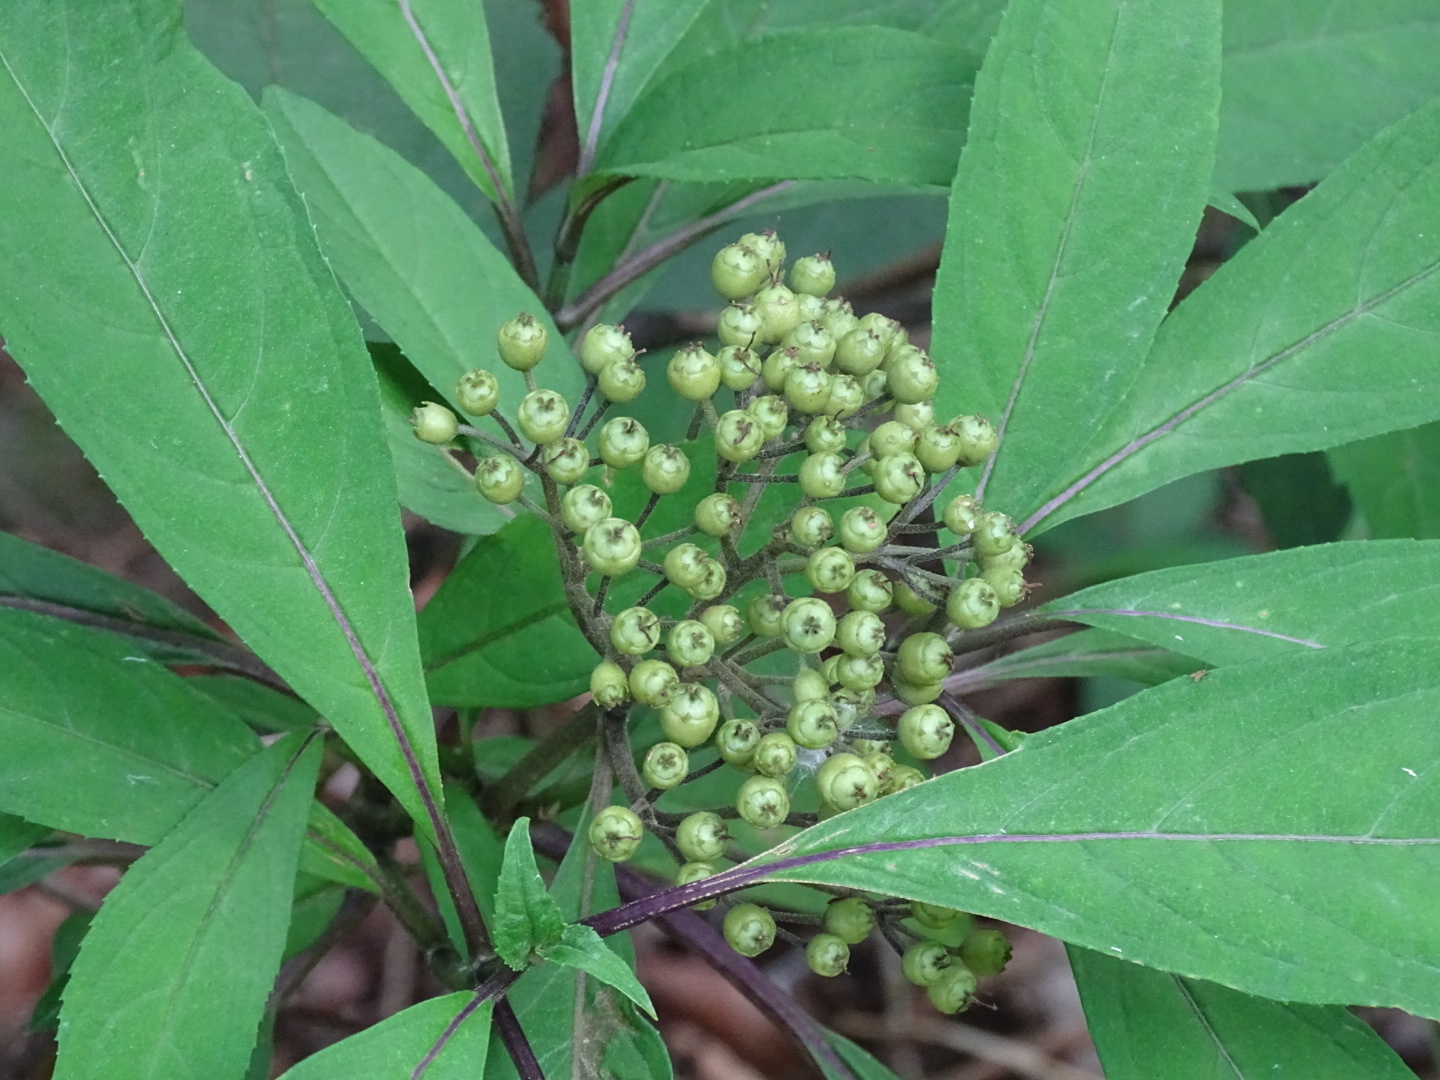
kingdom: Plantae
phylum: Tracheophyta
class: Magnoliopsida
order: Cornales
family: Hydrangeaceae
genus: Hydrangea
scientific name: Hydrangea febrifuga
